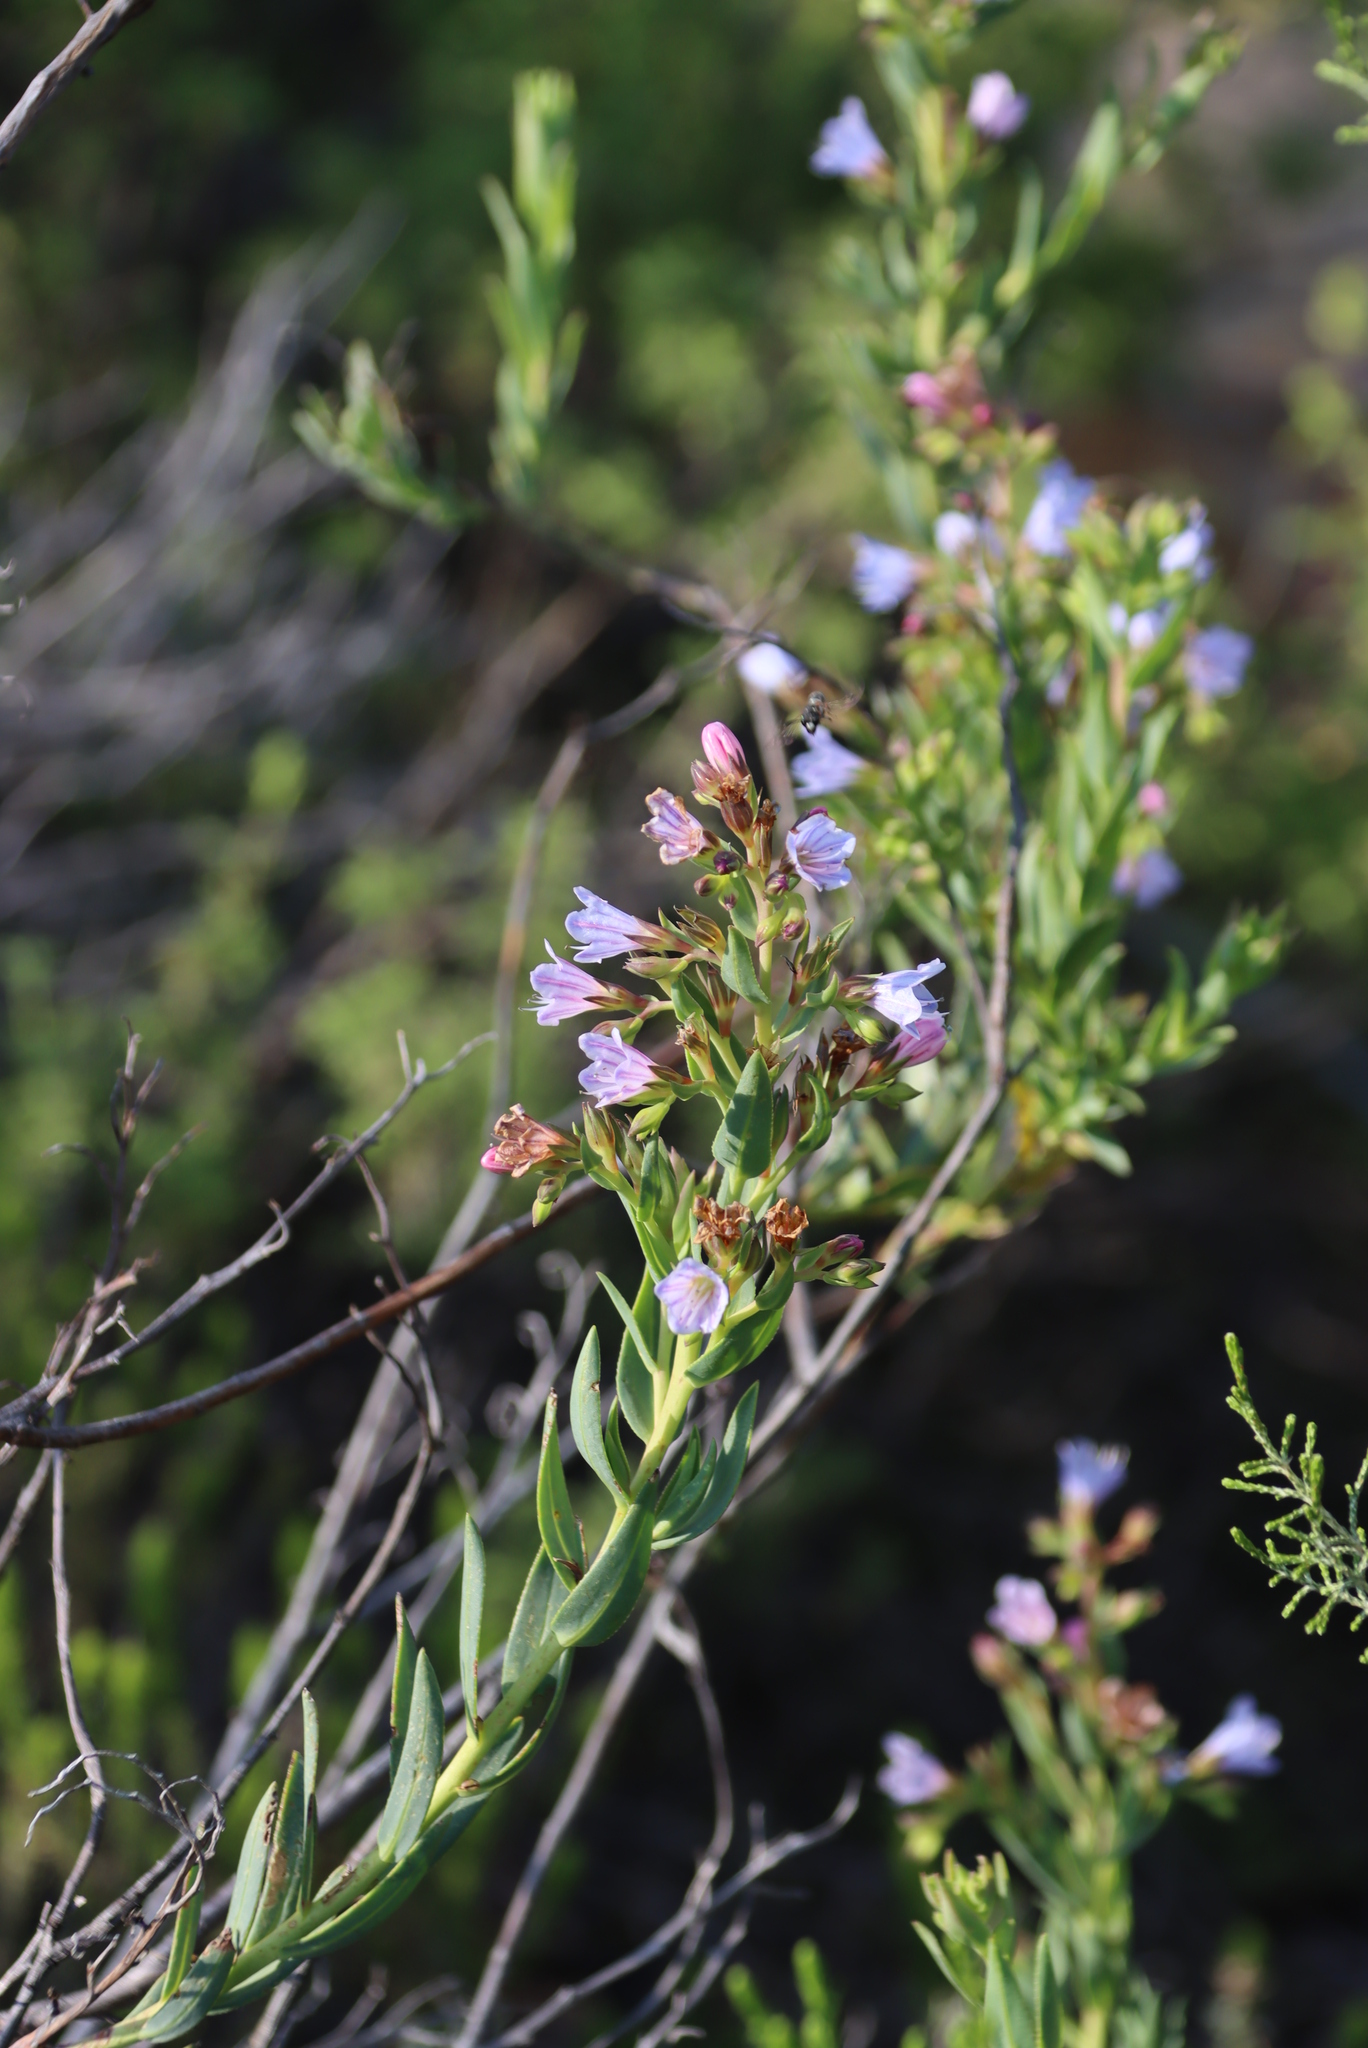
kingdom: Plantae
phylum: Tracheophyta
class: Magnoliopsida
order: Boraginales
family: Boraginaceae
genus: Lobostemon
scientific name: Lobostemon glaucophyllus
